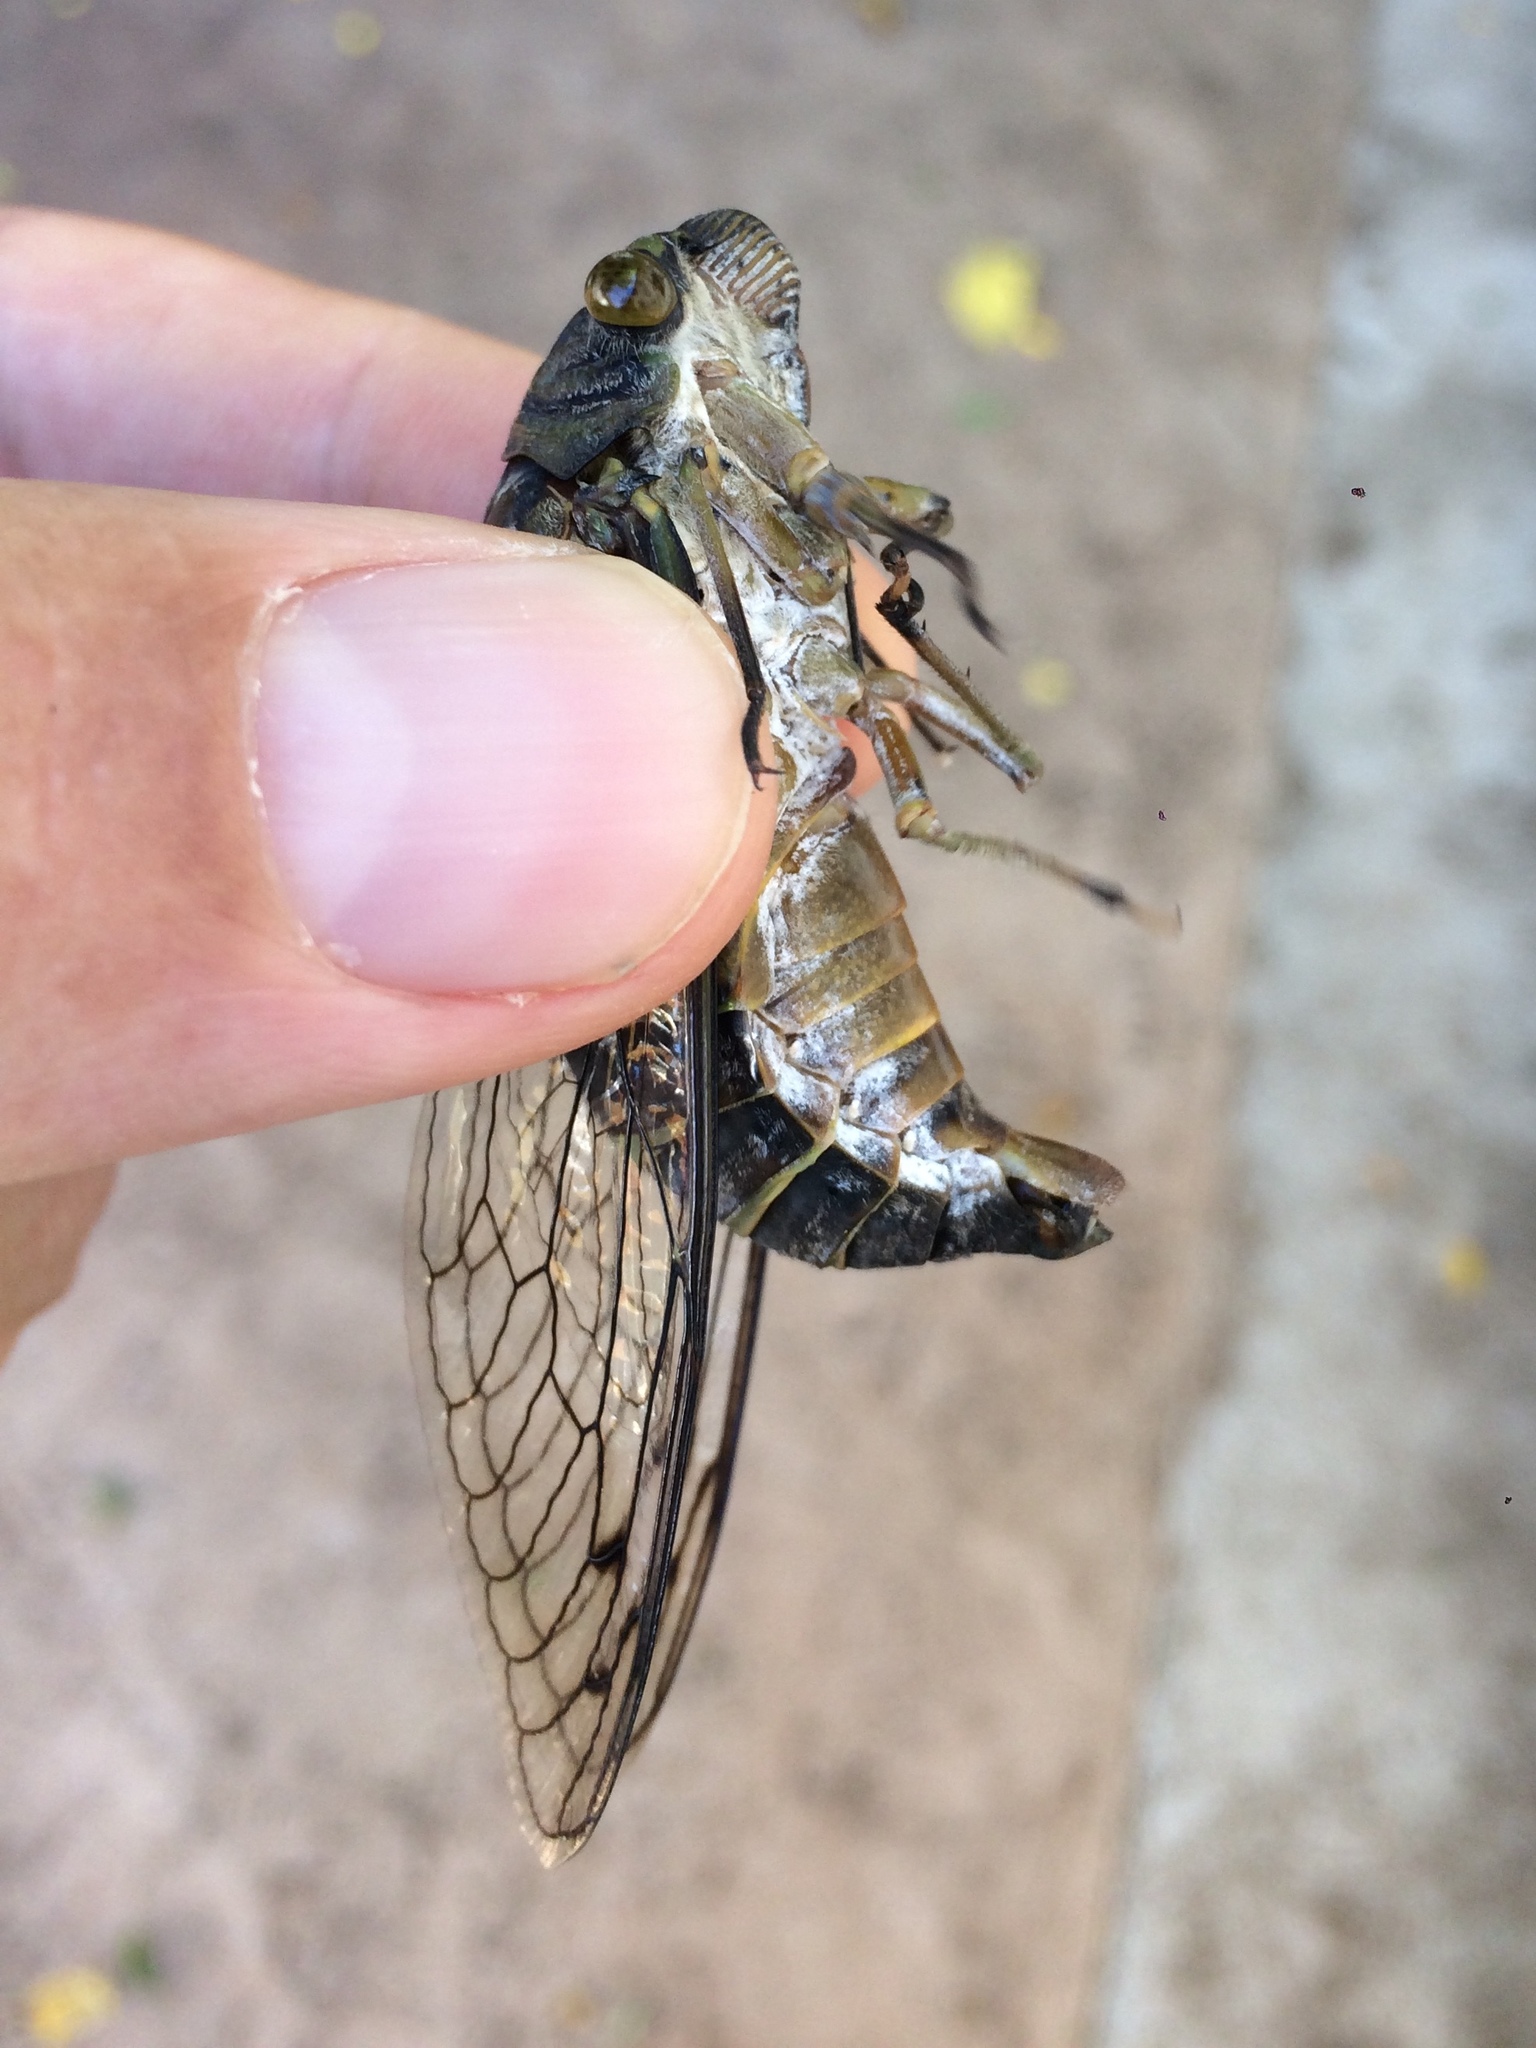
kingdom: Animalia
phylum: Arthropoda
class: Insecta
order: Hemiptera
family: Cicadidae
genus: Quesada
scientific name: Quesada gigas
